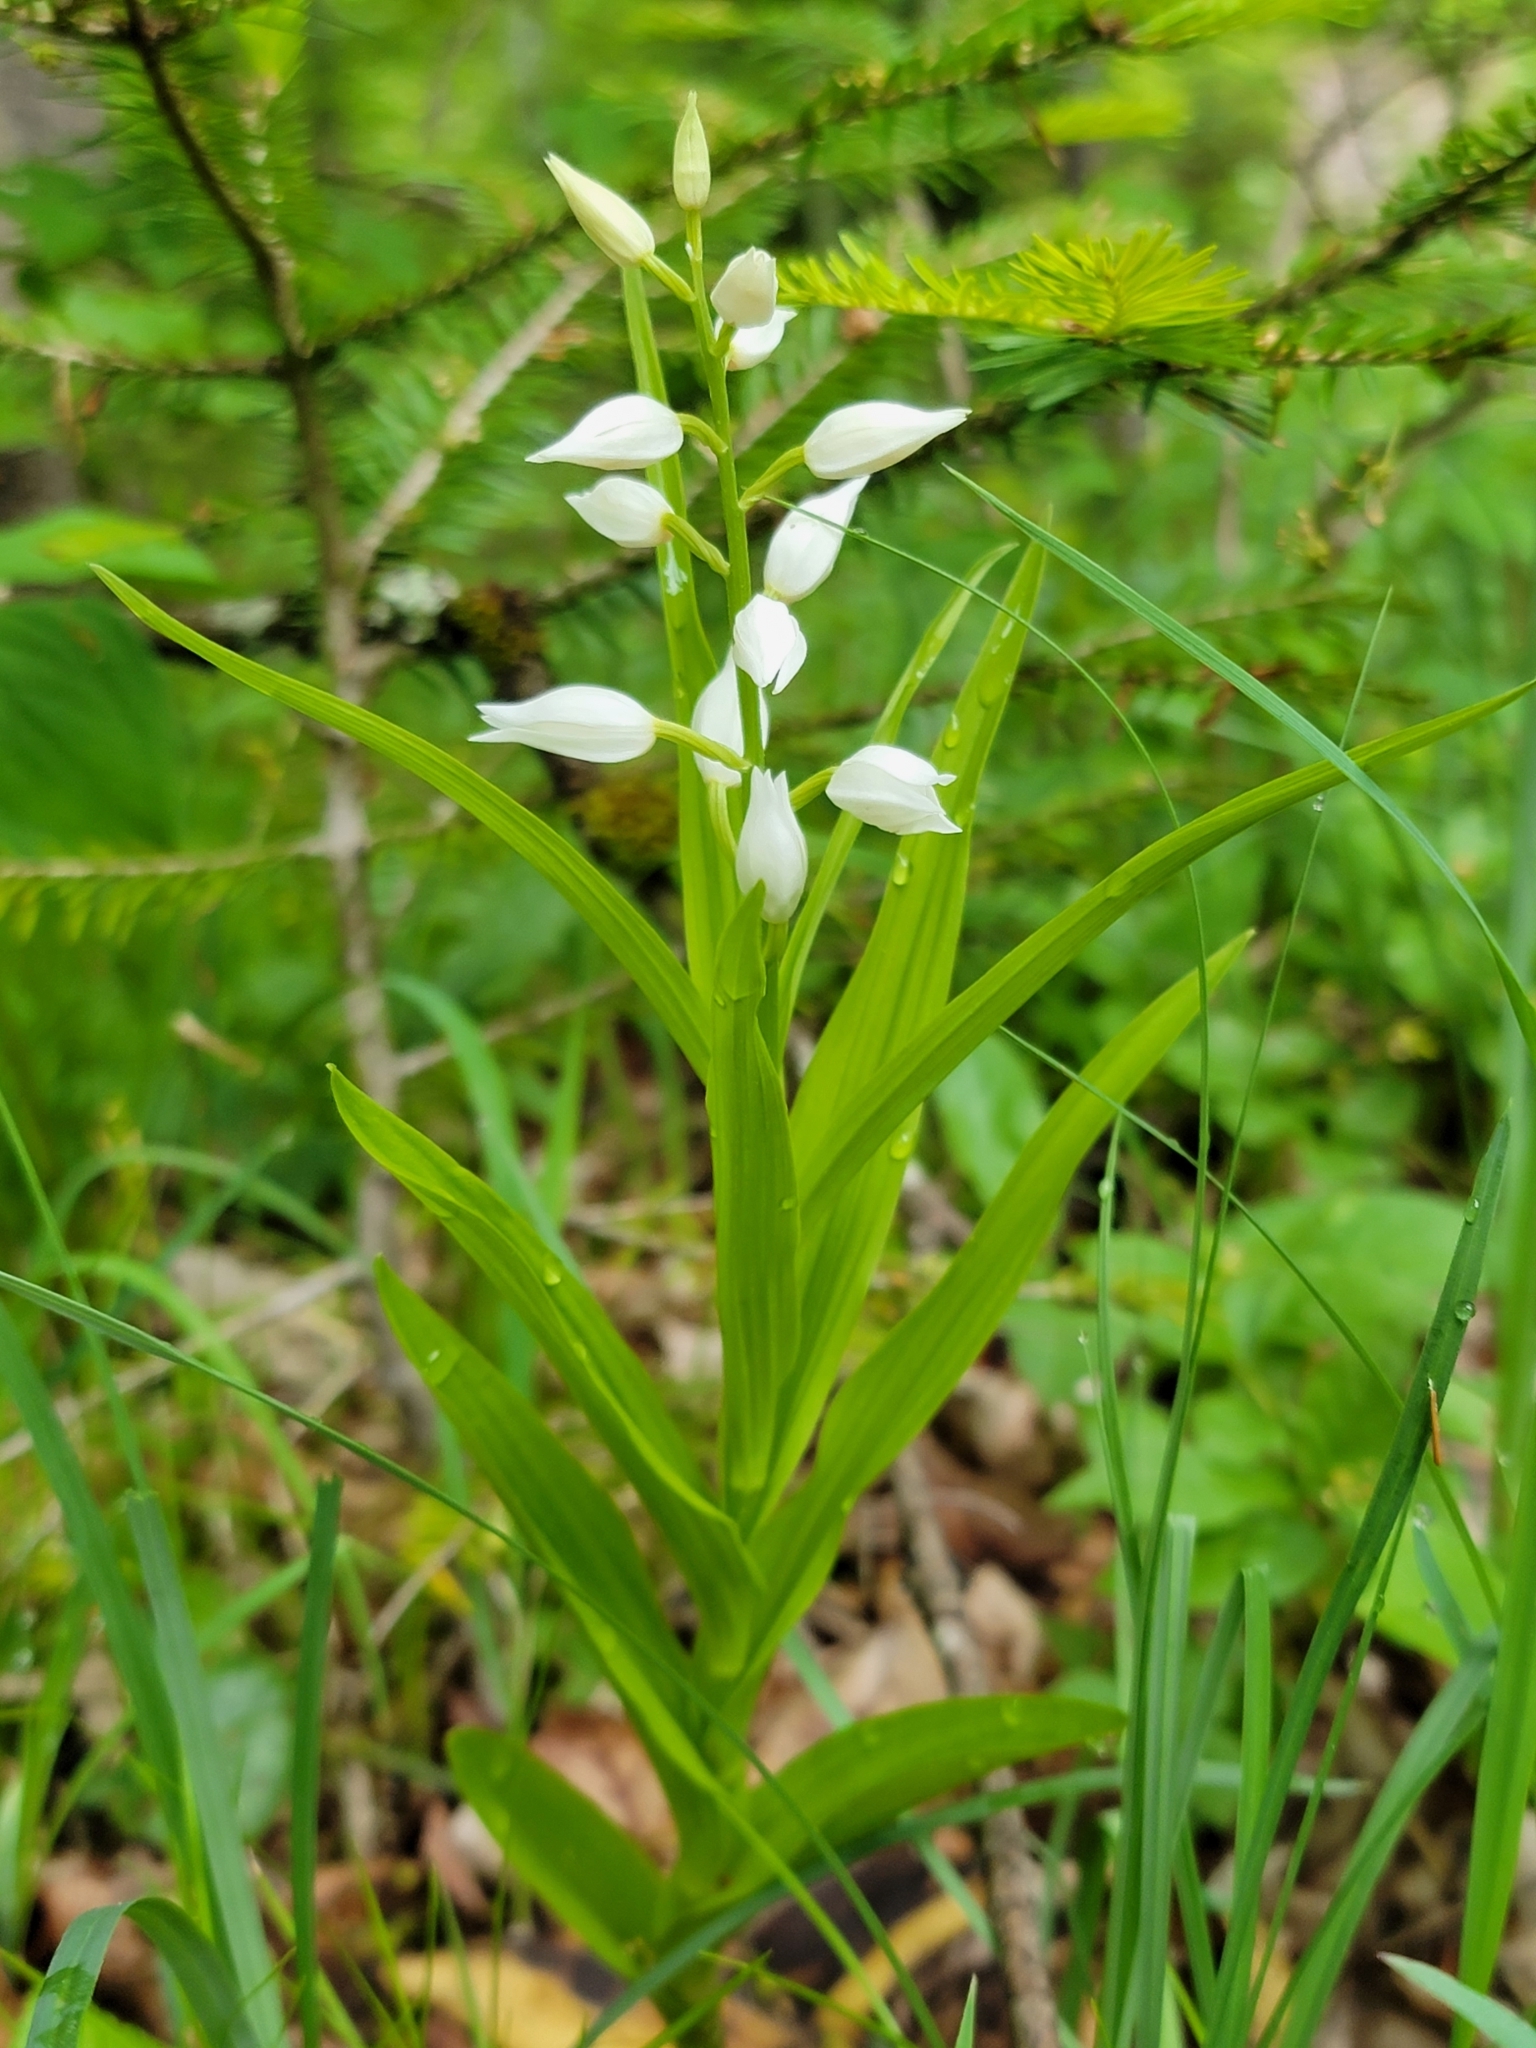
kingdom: Plantae
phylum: Tracheophyta
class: Liliopsida
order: Asparagales
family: Orchidaceae
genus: Cephalanthera
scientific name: Cephalanthera longifolia
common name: Narrow-leaved helleborine
